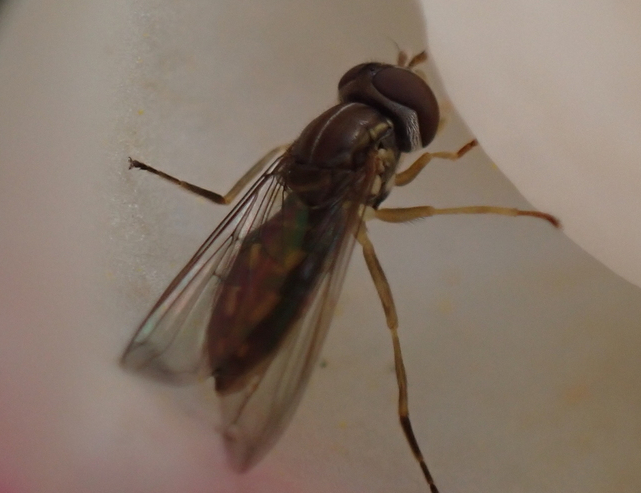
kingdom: Animalia
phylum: Arthropoda
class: Insecta
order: Diptera
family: Syrphidae
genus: Toxomerus
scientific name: Toxomerus marginatus
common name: Syrphid fly
